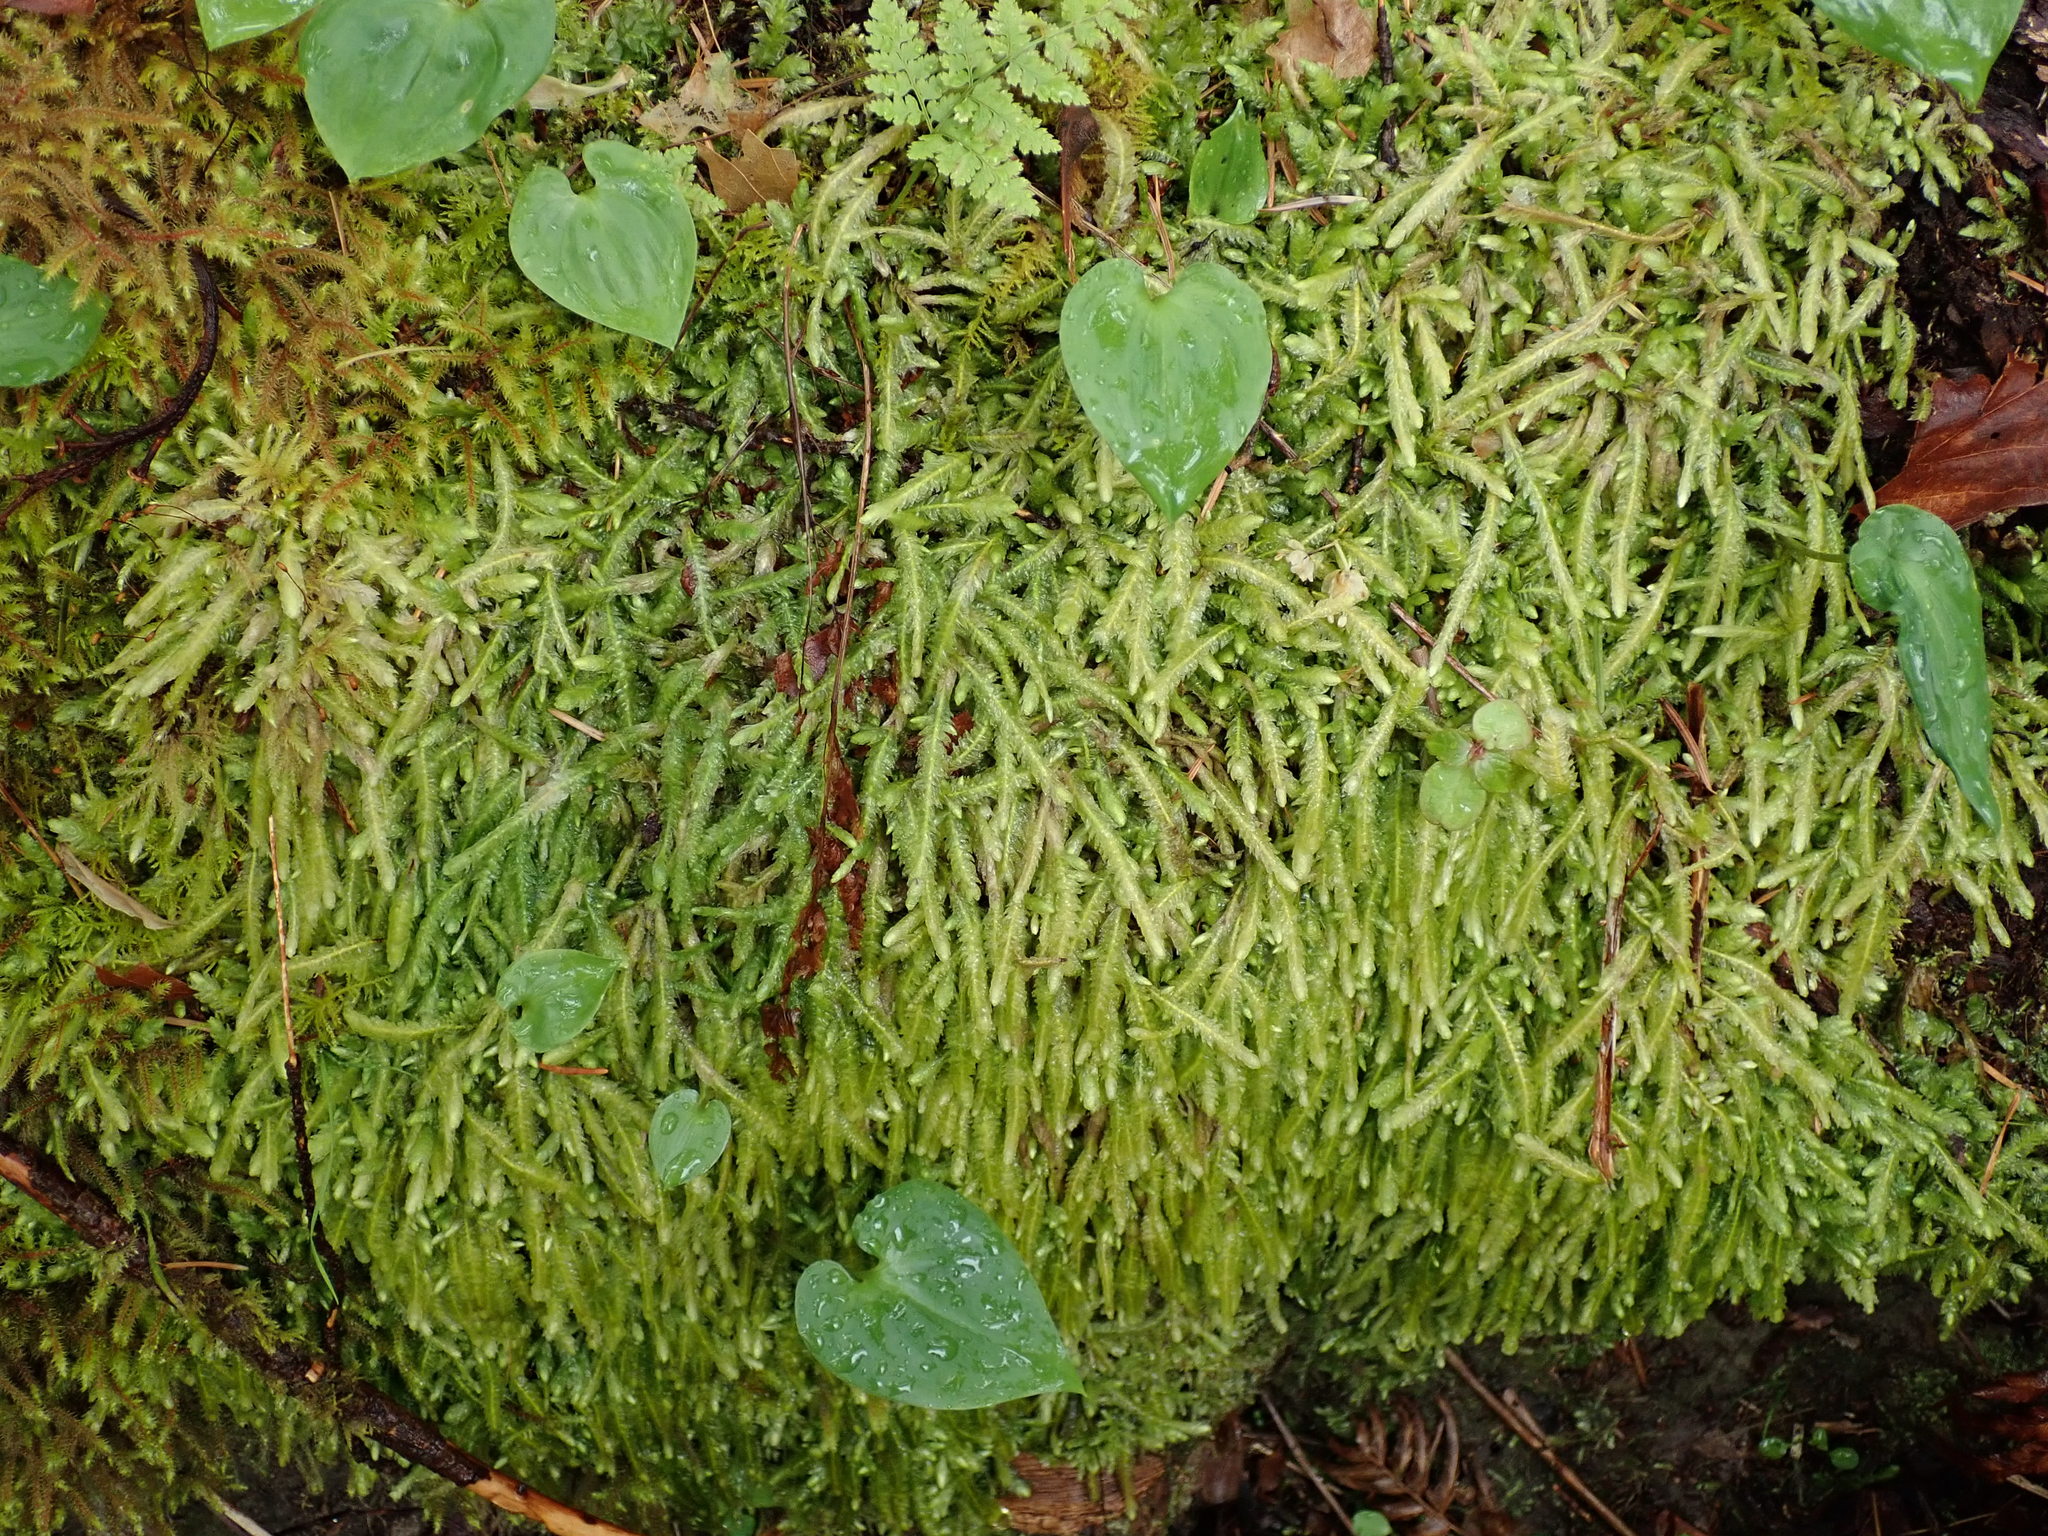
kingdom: Plantae
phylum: Bryophyta
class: Bryopsida
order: Hypnales
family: Plagiotheciaceae
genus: Plagiothecium
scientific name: Plagiothecium undulatum
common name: Waved silk-moss
